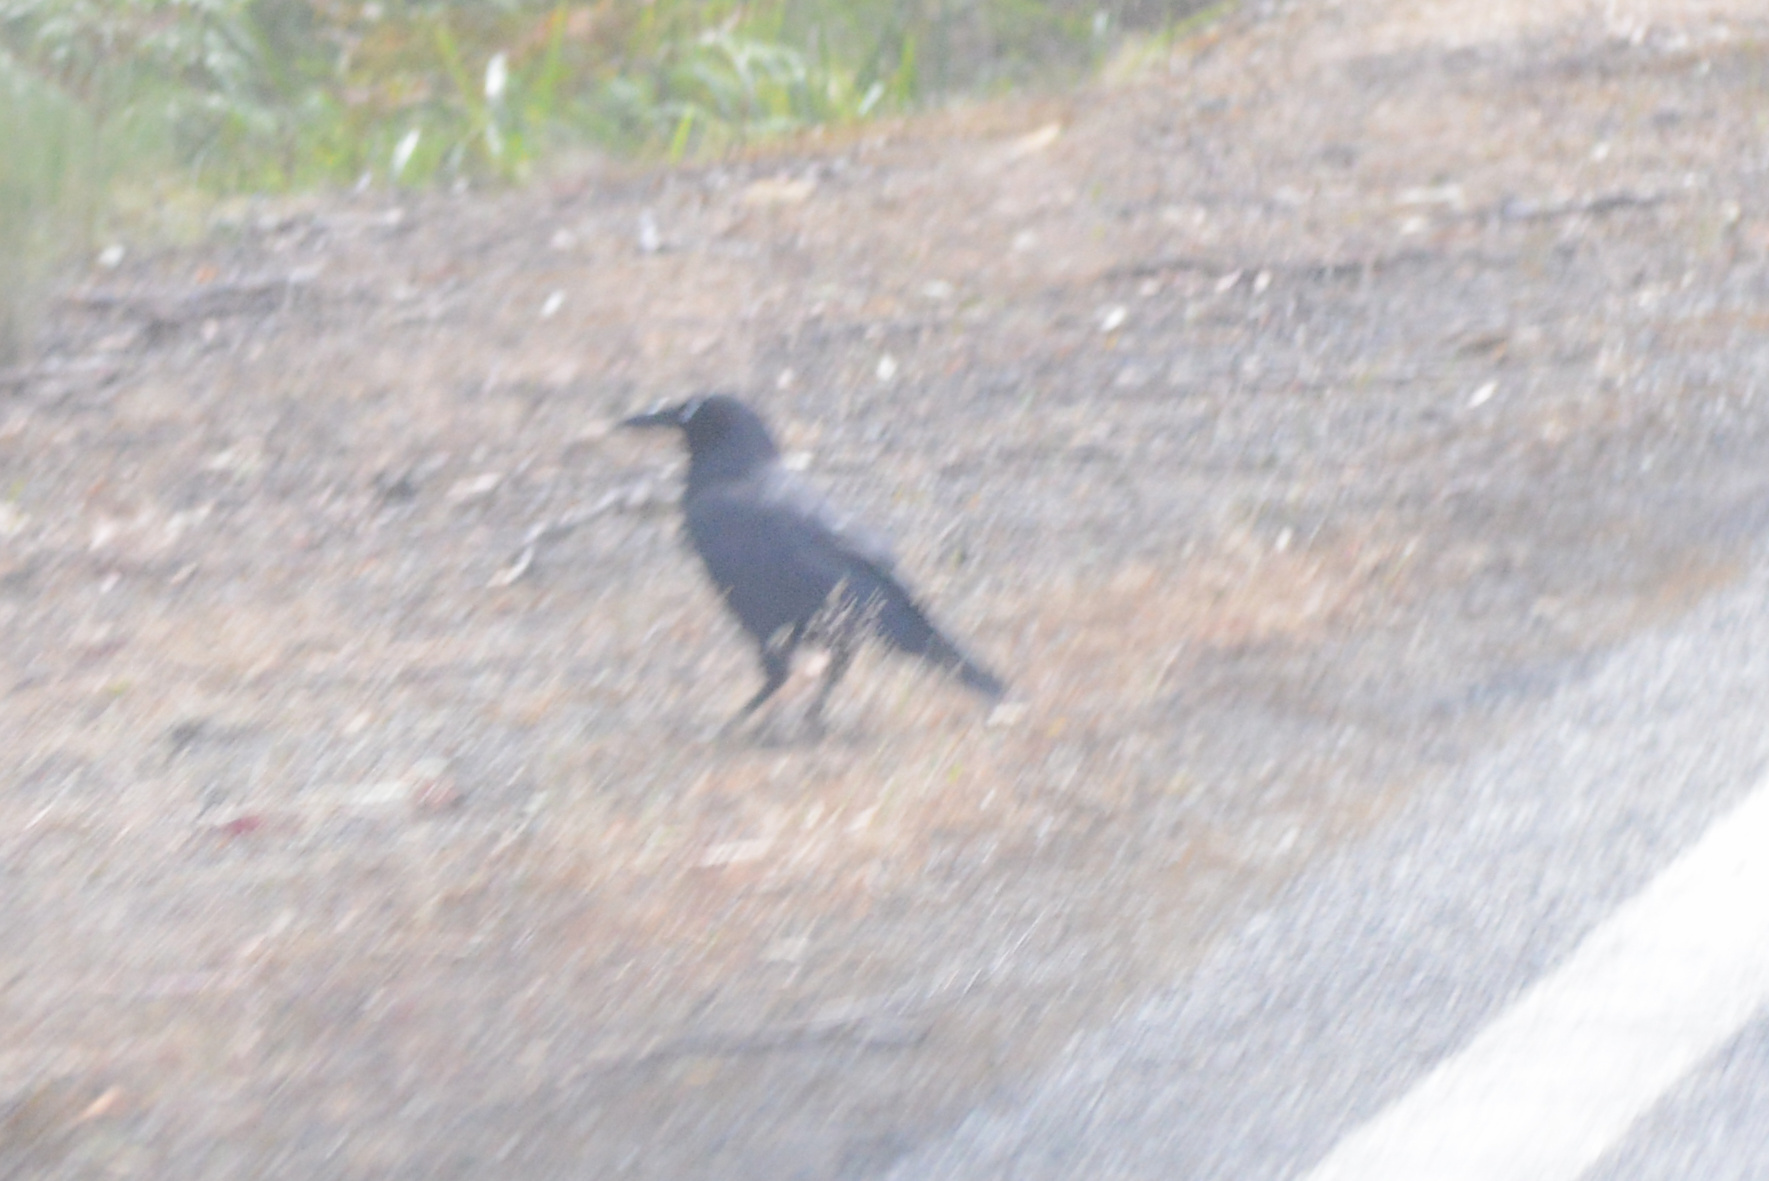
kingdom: Animalia
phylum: Chordata
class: Aves
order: Passeriformes
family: Corvidae
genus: Corvus
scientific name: Corvus tasmanicus
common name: Forest raven
